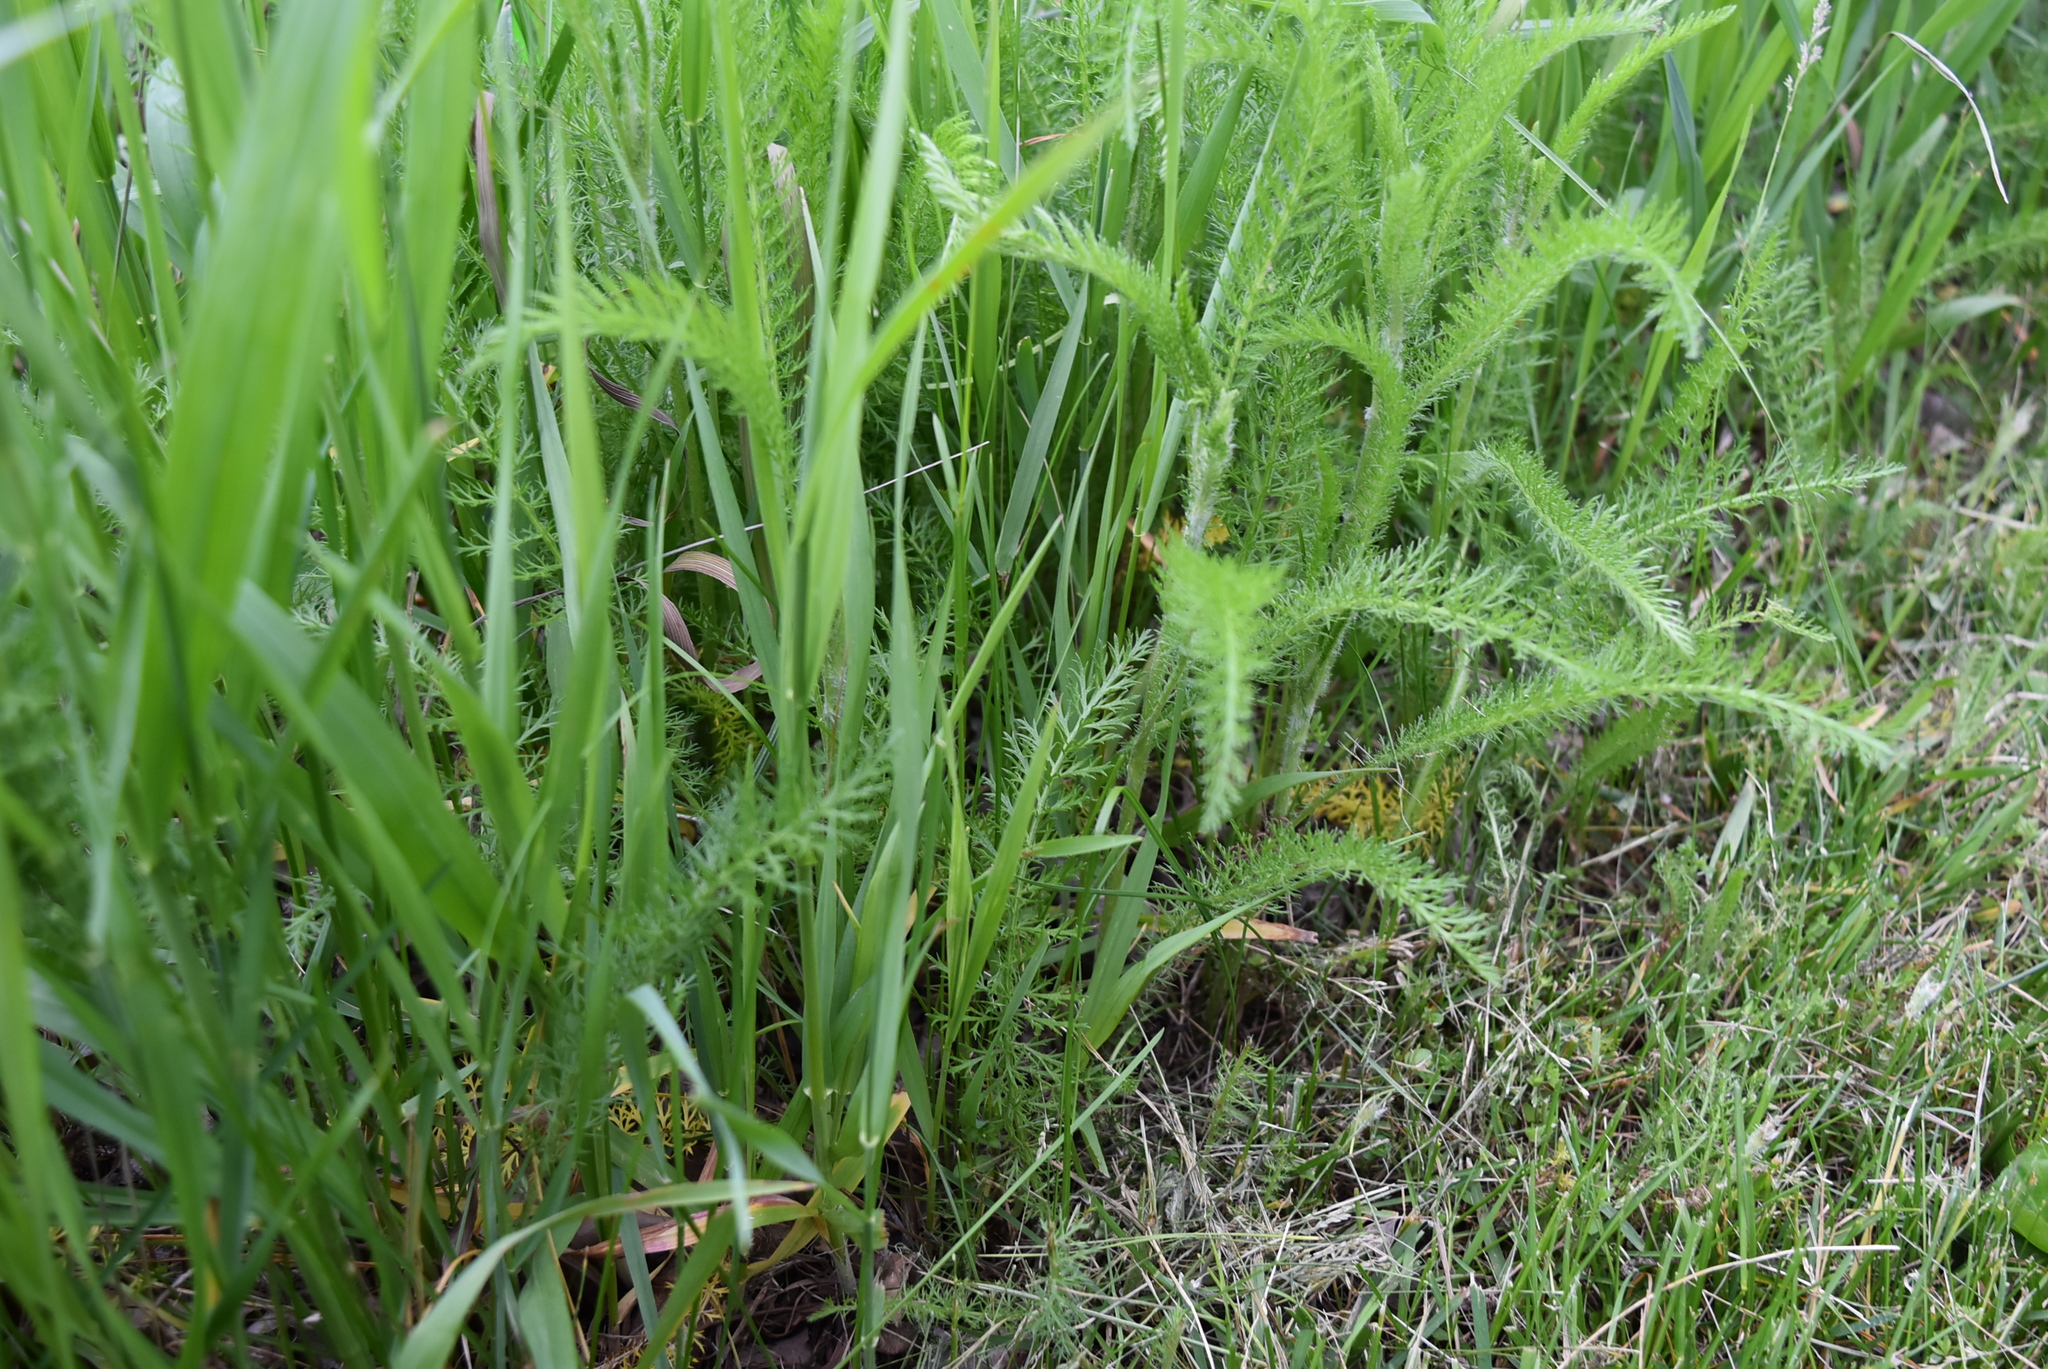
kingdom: Plantae
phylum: Tracheophyta
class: Magnoliopsida
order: Asterales
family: Asteraceae
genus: Achillea
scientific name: Achillea millefolium
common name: Yarrow
